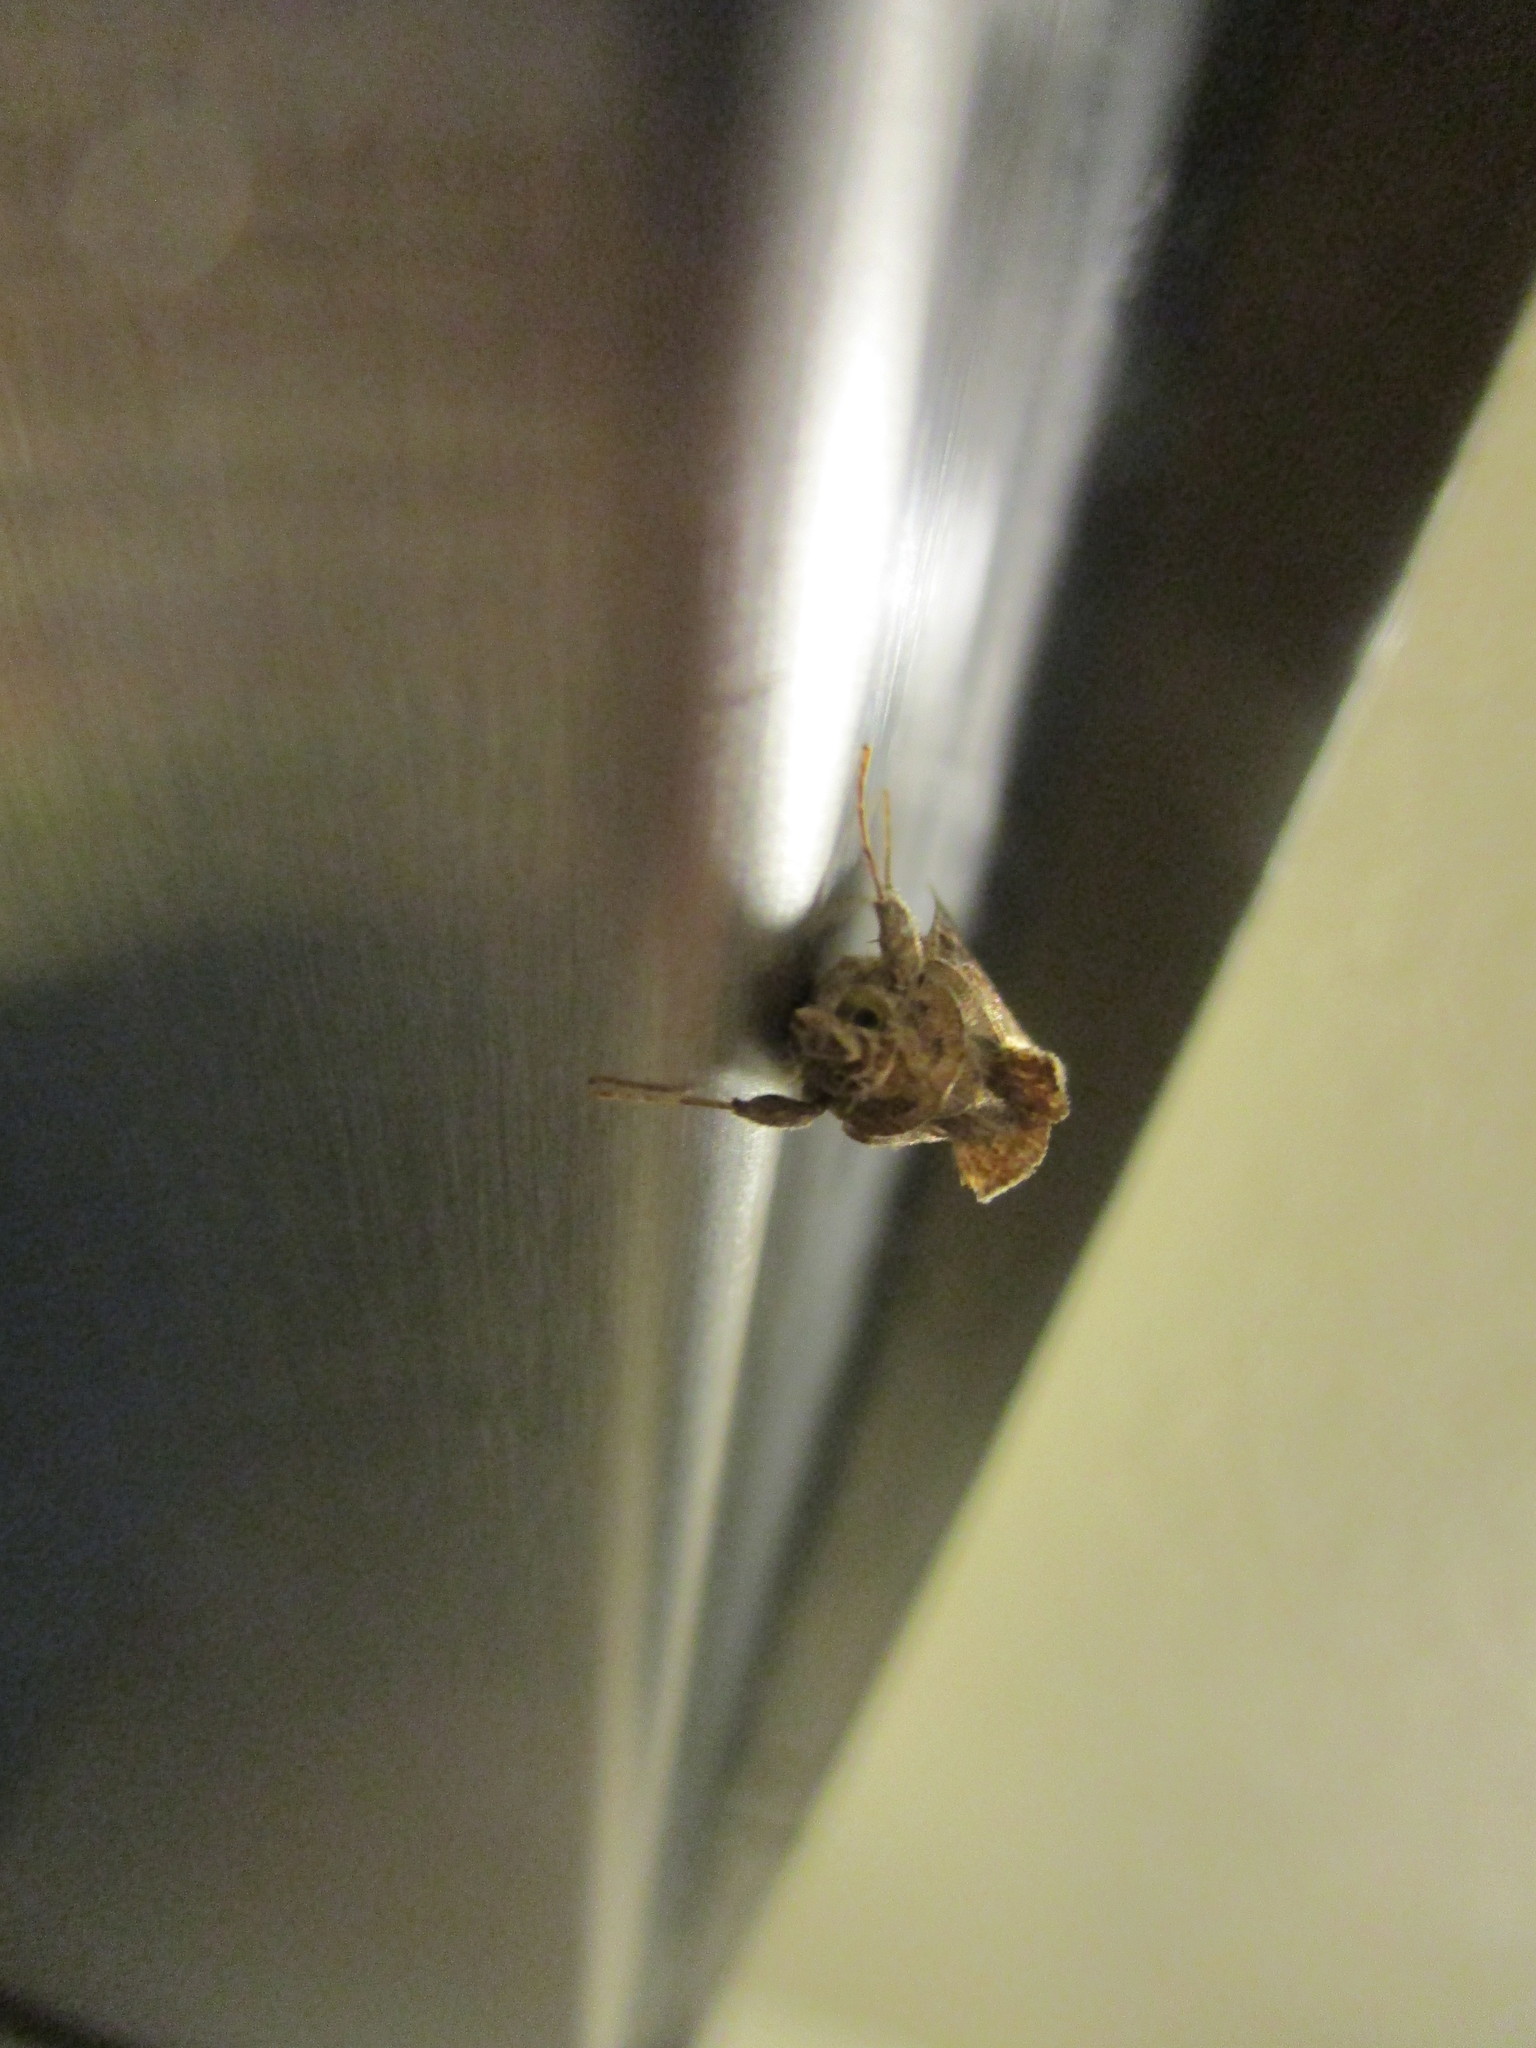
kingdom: Animalia
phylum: Arthropoda
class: Insecta
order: Lepidoptera
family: Noctuidae
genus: Chrysodeixis
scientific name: Chrysodeixis includens
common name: Cutworm moth
